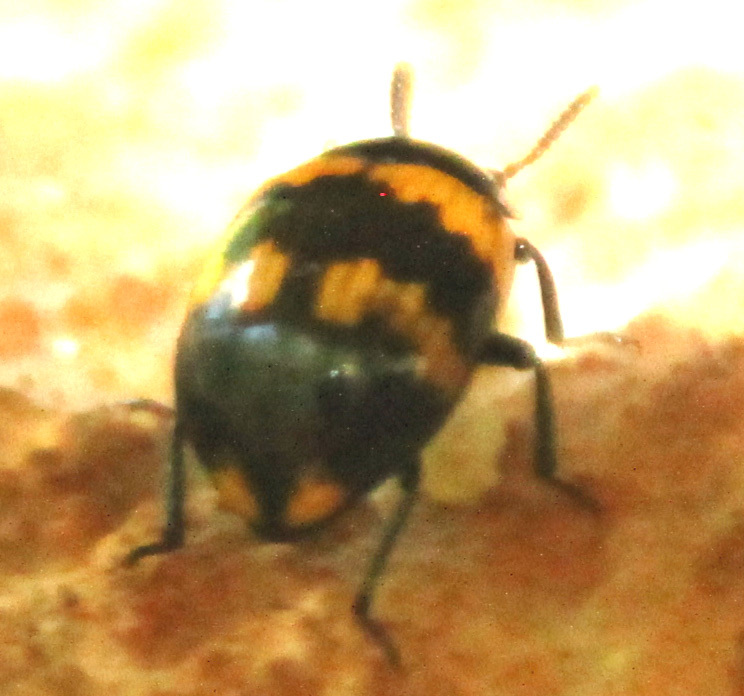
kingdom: Animalia
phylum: Arthropoda
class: Insecta
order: Coleoptera
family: Tenebrionidae
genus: Diaperis
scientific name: Diaperis boleti
